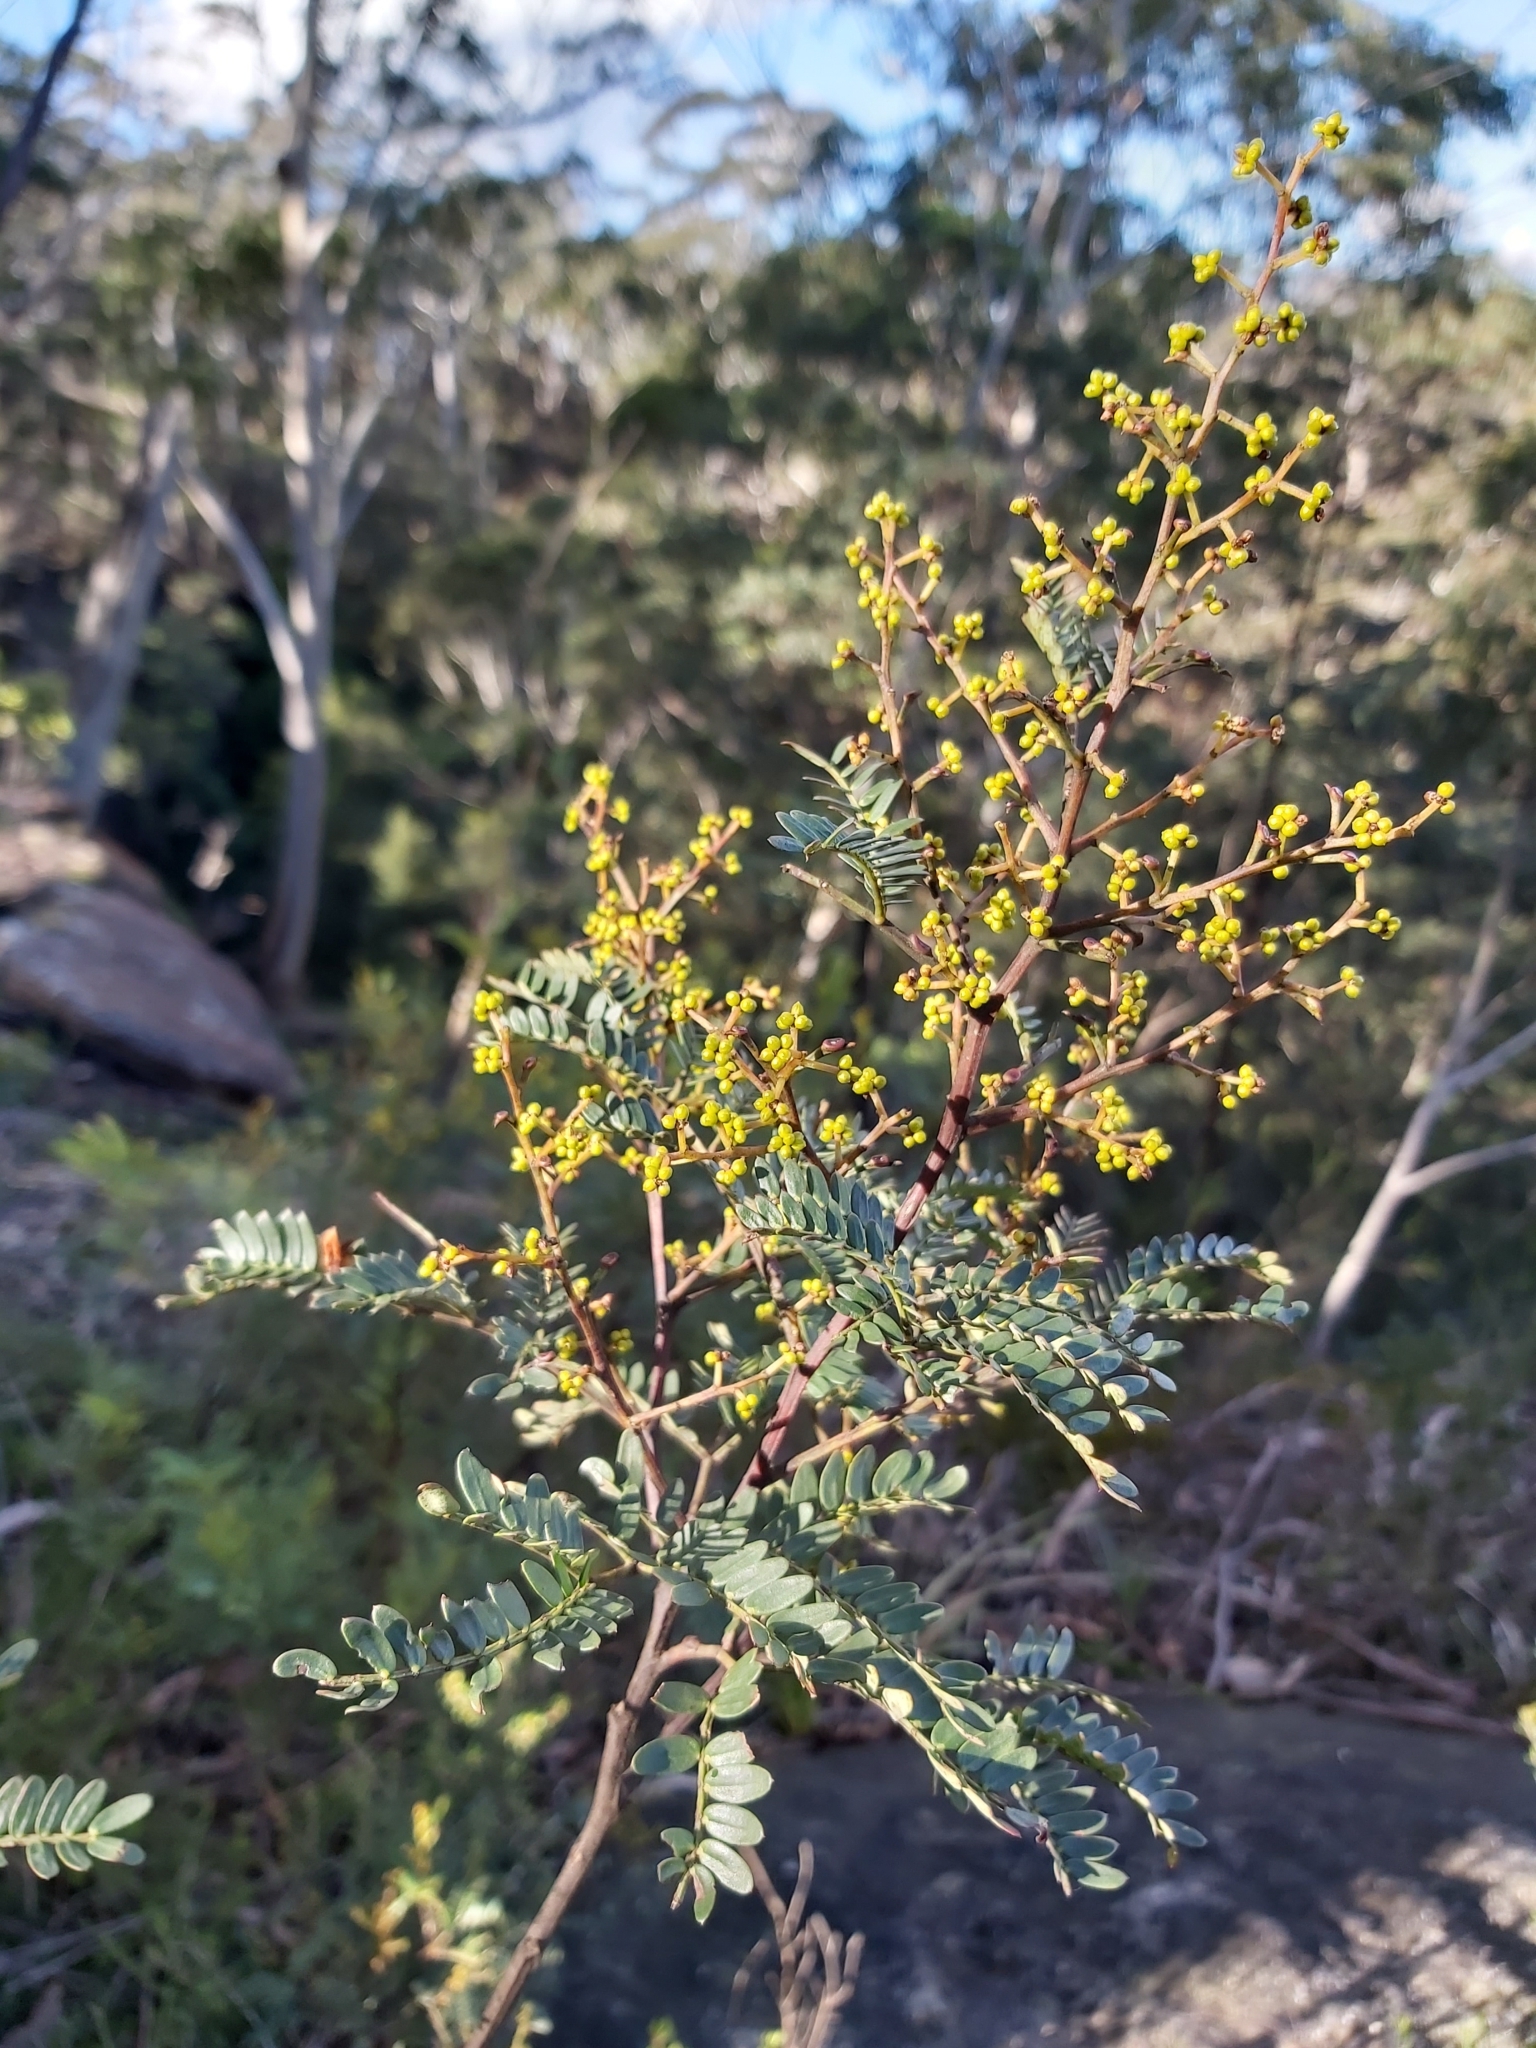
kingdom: Plantae
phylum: Tracheophyta
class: Magnoliopsida
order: Fabales
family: Fabaceae
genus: Acacia
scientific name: Acacia terminalis
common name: Cedar wattle
